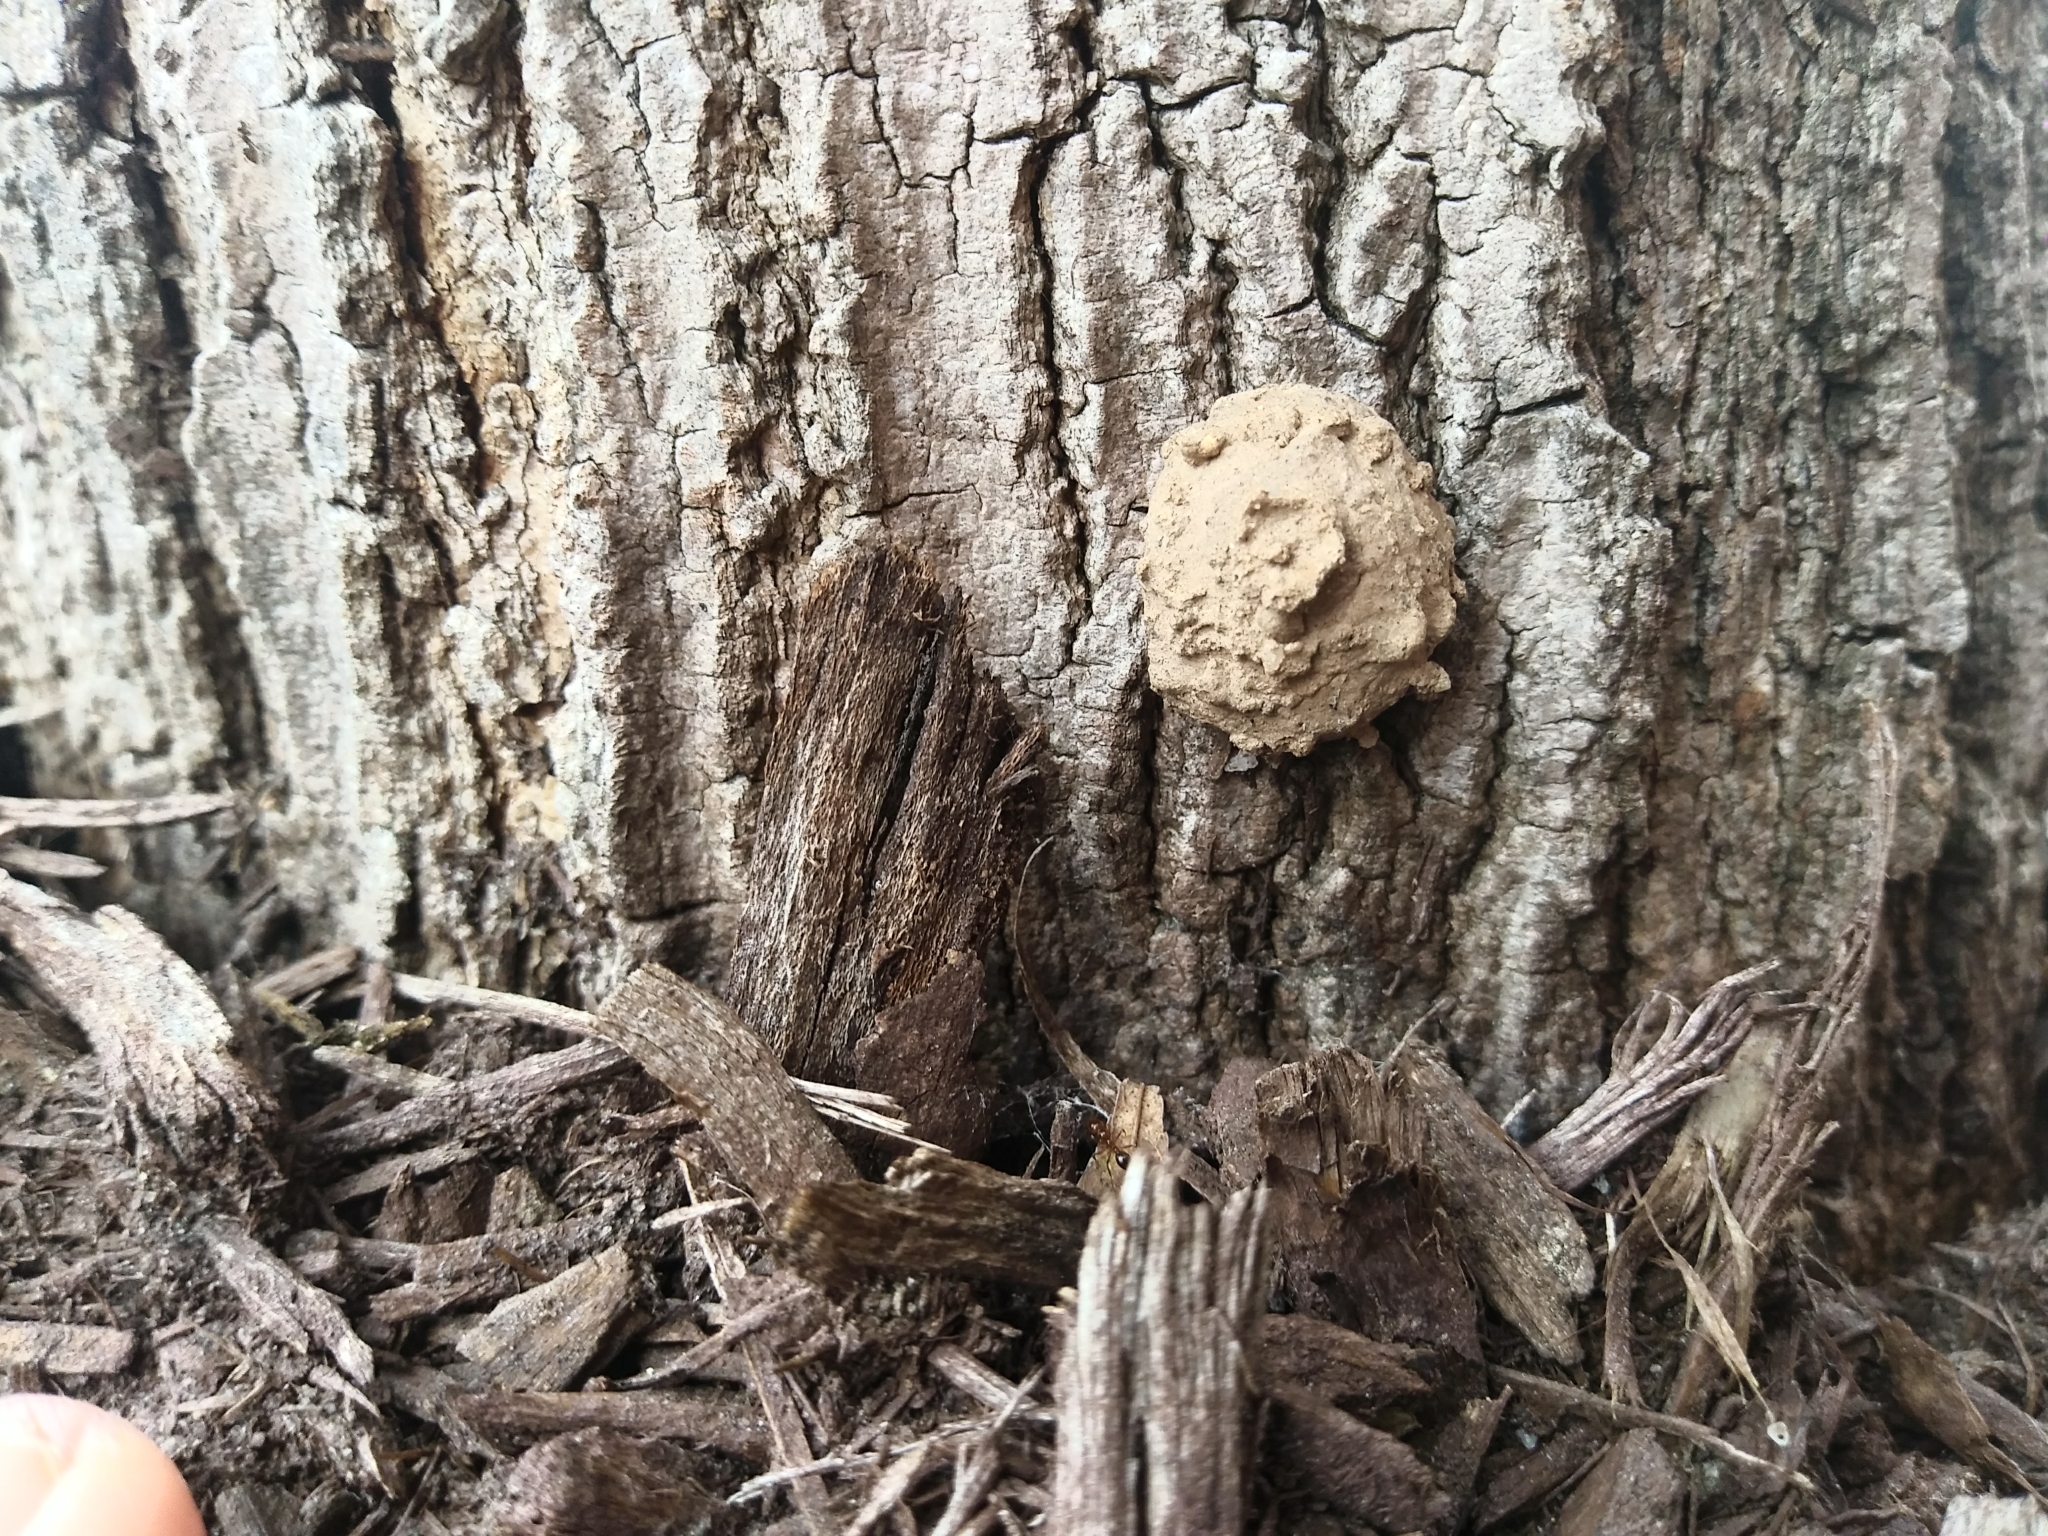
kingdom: Animalia
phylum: Arthropoda
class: Insecta
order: Hymenoptera
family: Vespidae
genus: Eumenes
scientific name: Eumenes
